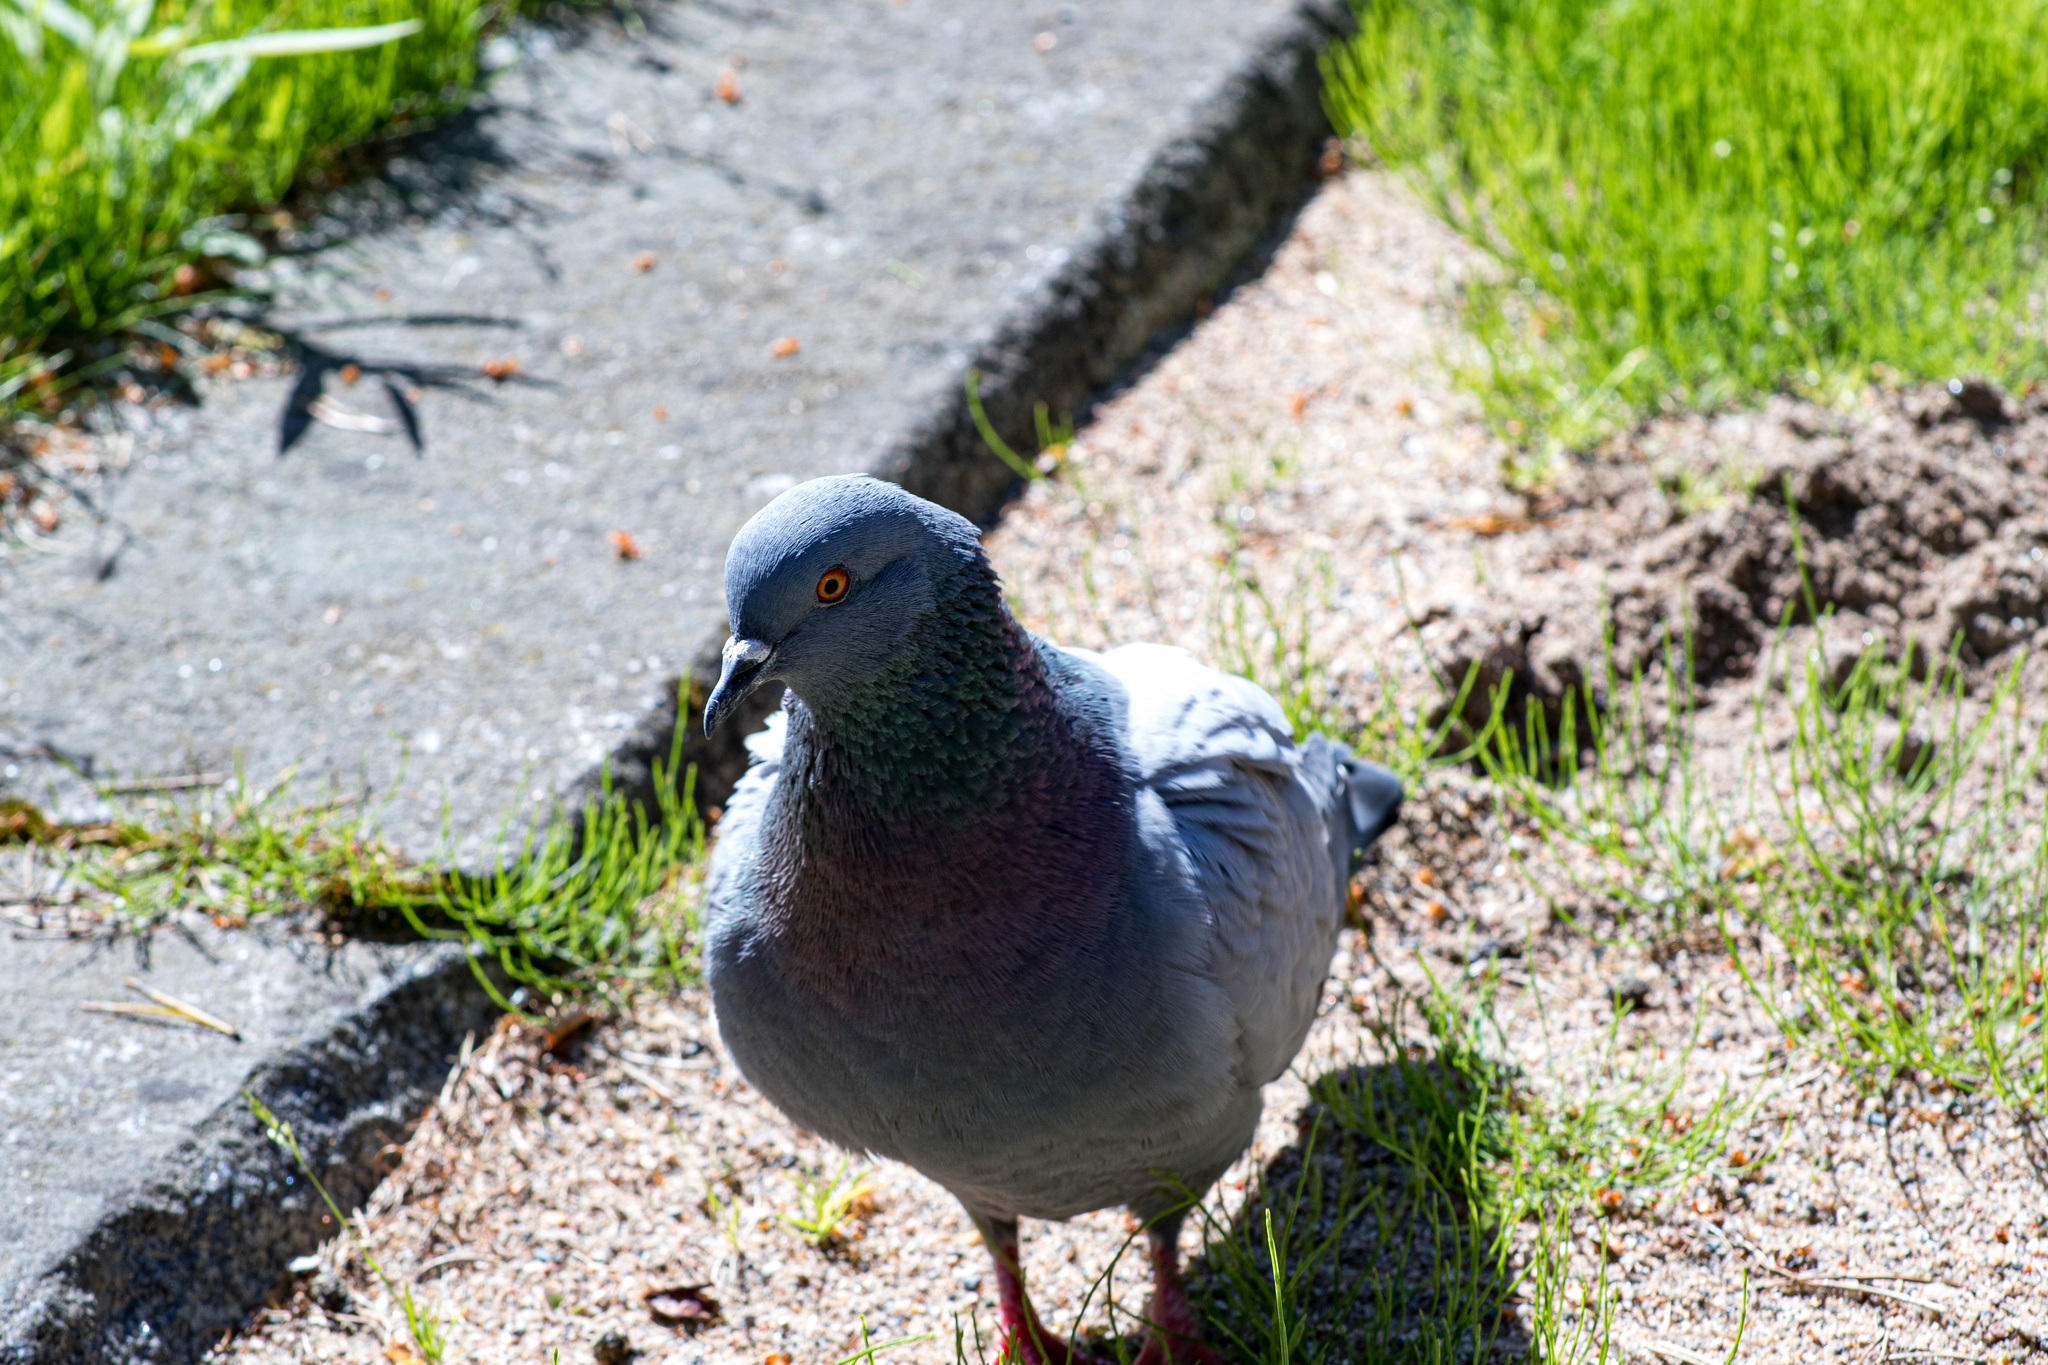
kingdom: Animalia
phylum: Chordata
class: Aves
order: Columbiformes
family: Columbidae
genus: Columba
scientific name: Columba livia
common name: Rock pigeon
